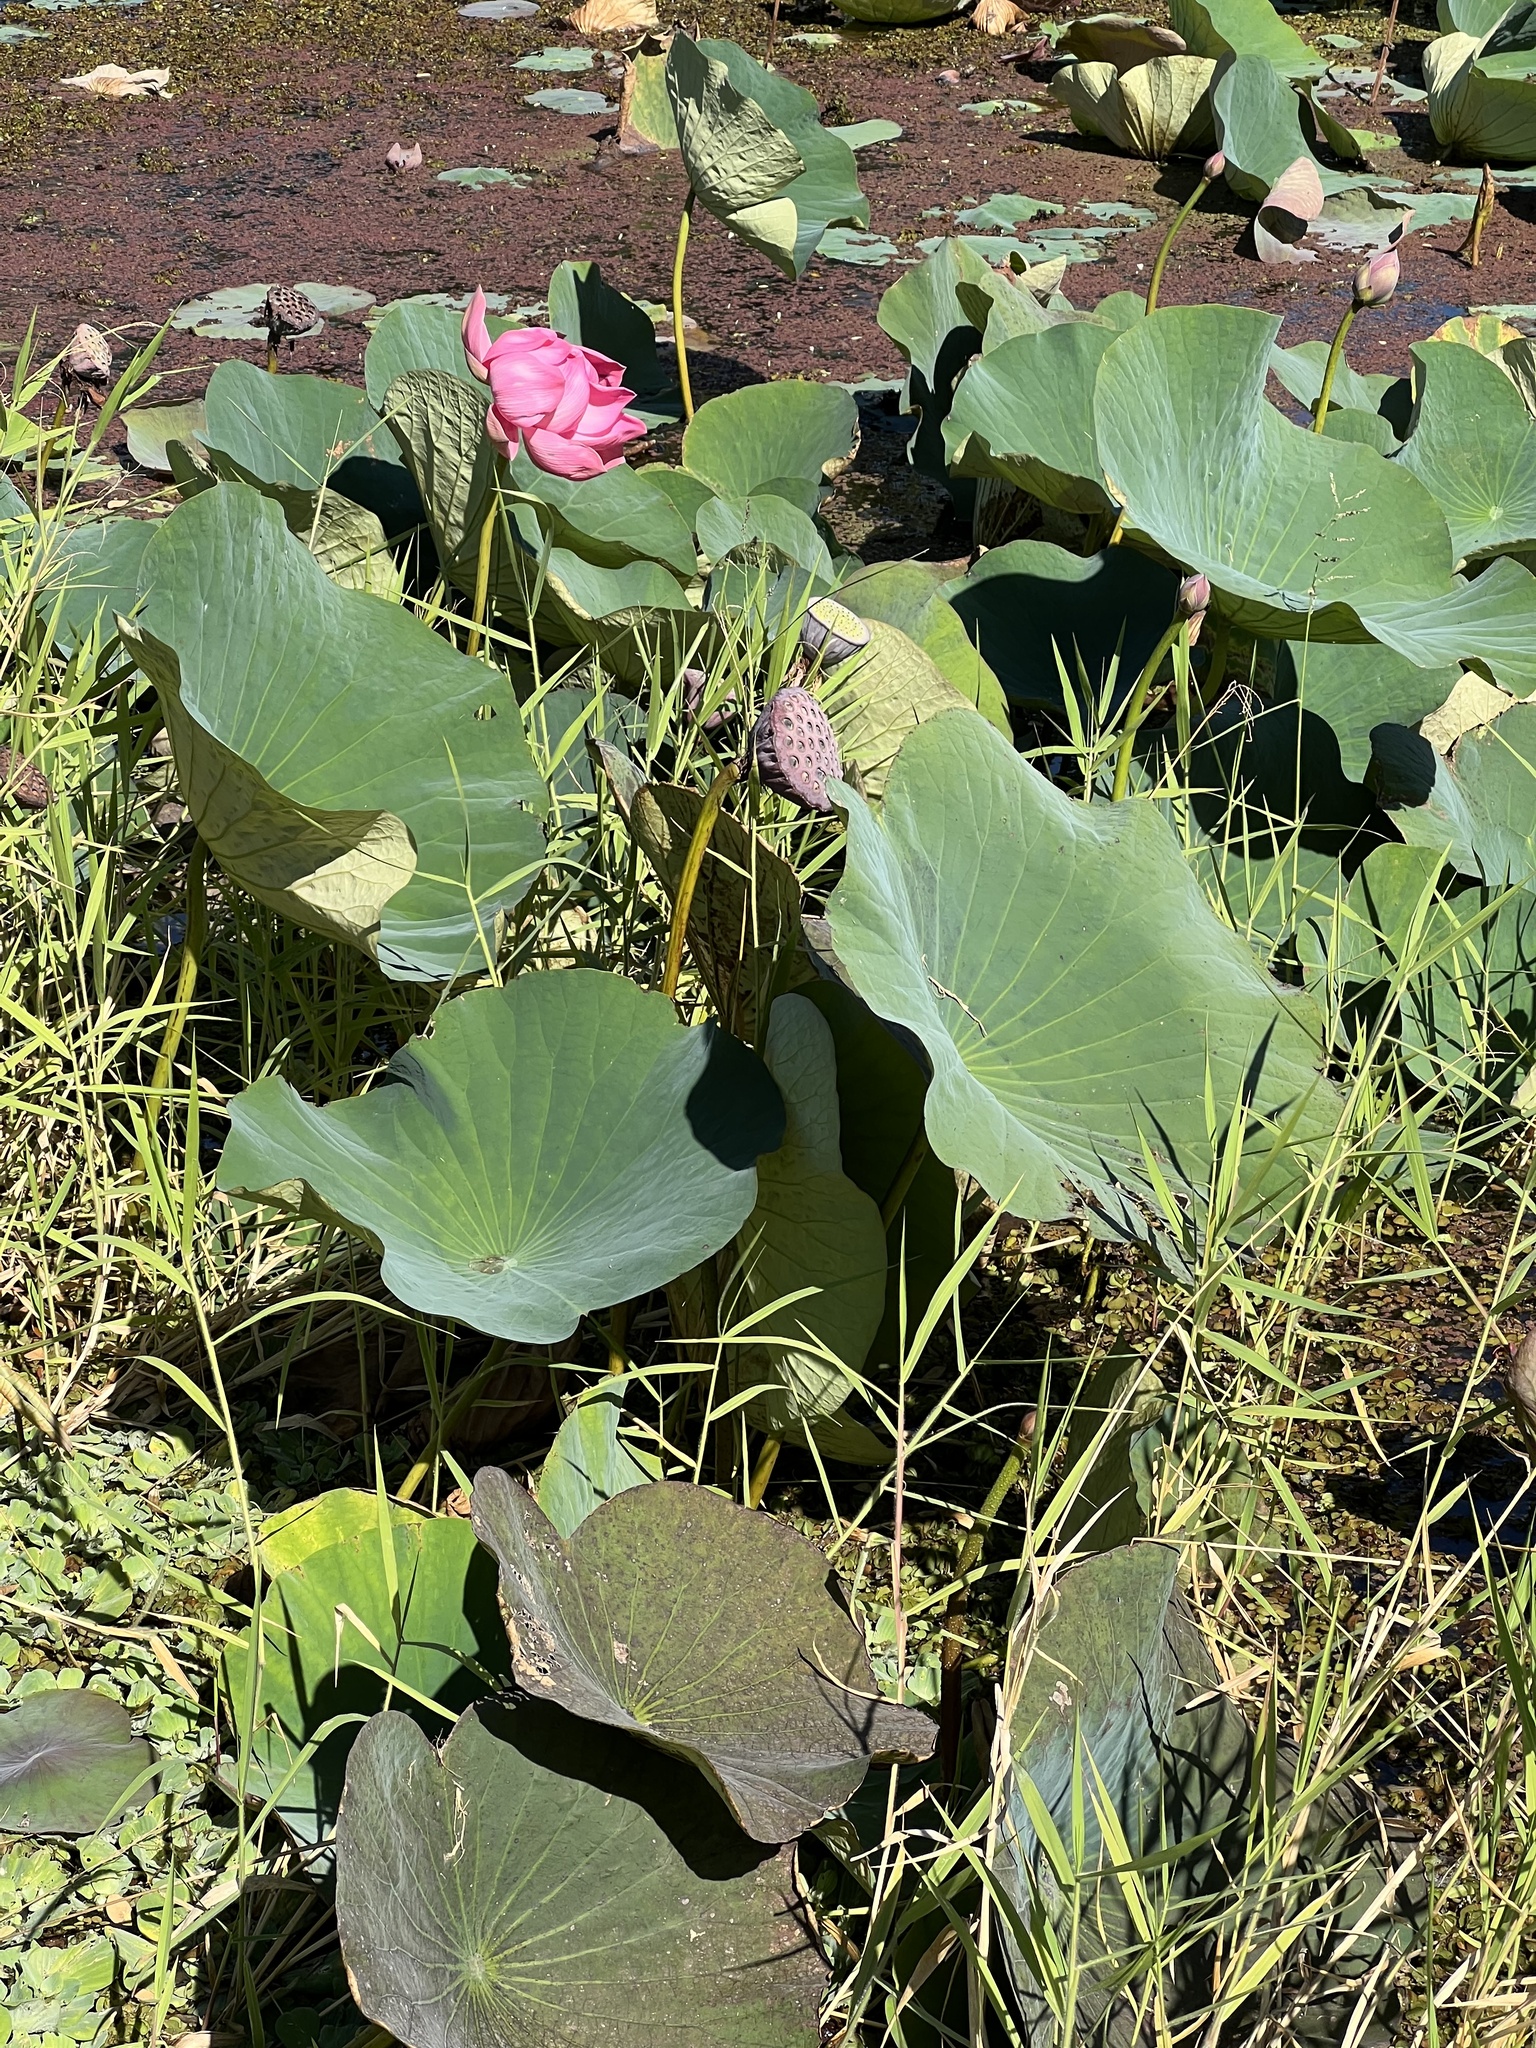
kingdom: Plantae
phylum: Tracheophyta
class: Magnoliopsida
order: Proteales
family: Nelumbonaceae
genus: Nelumbo
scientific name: Nelumbo nucifera
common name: Sacred lotus
